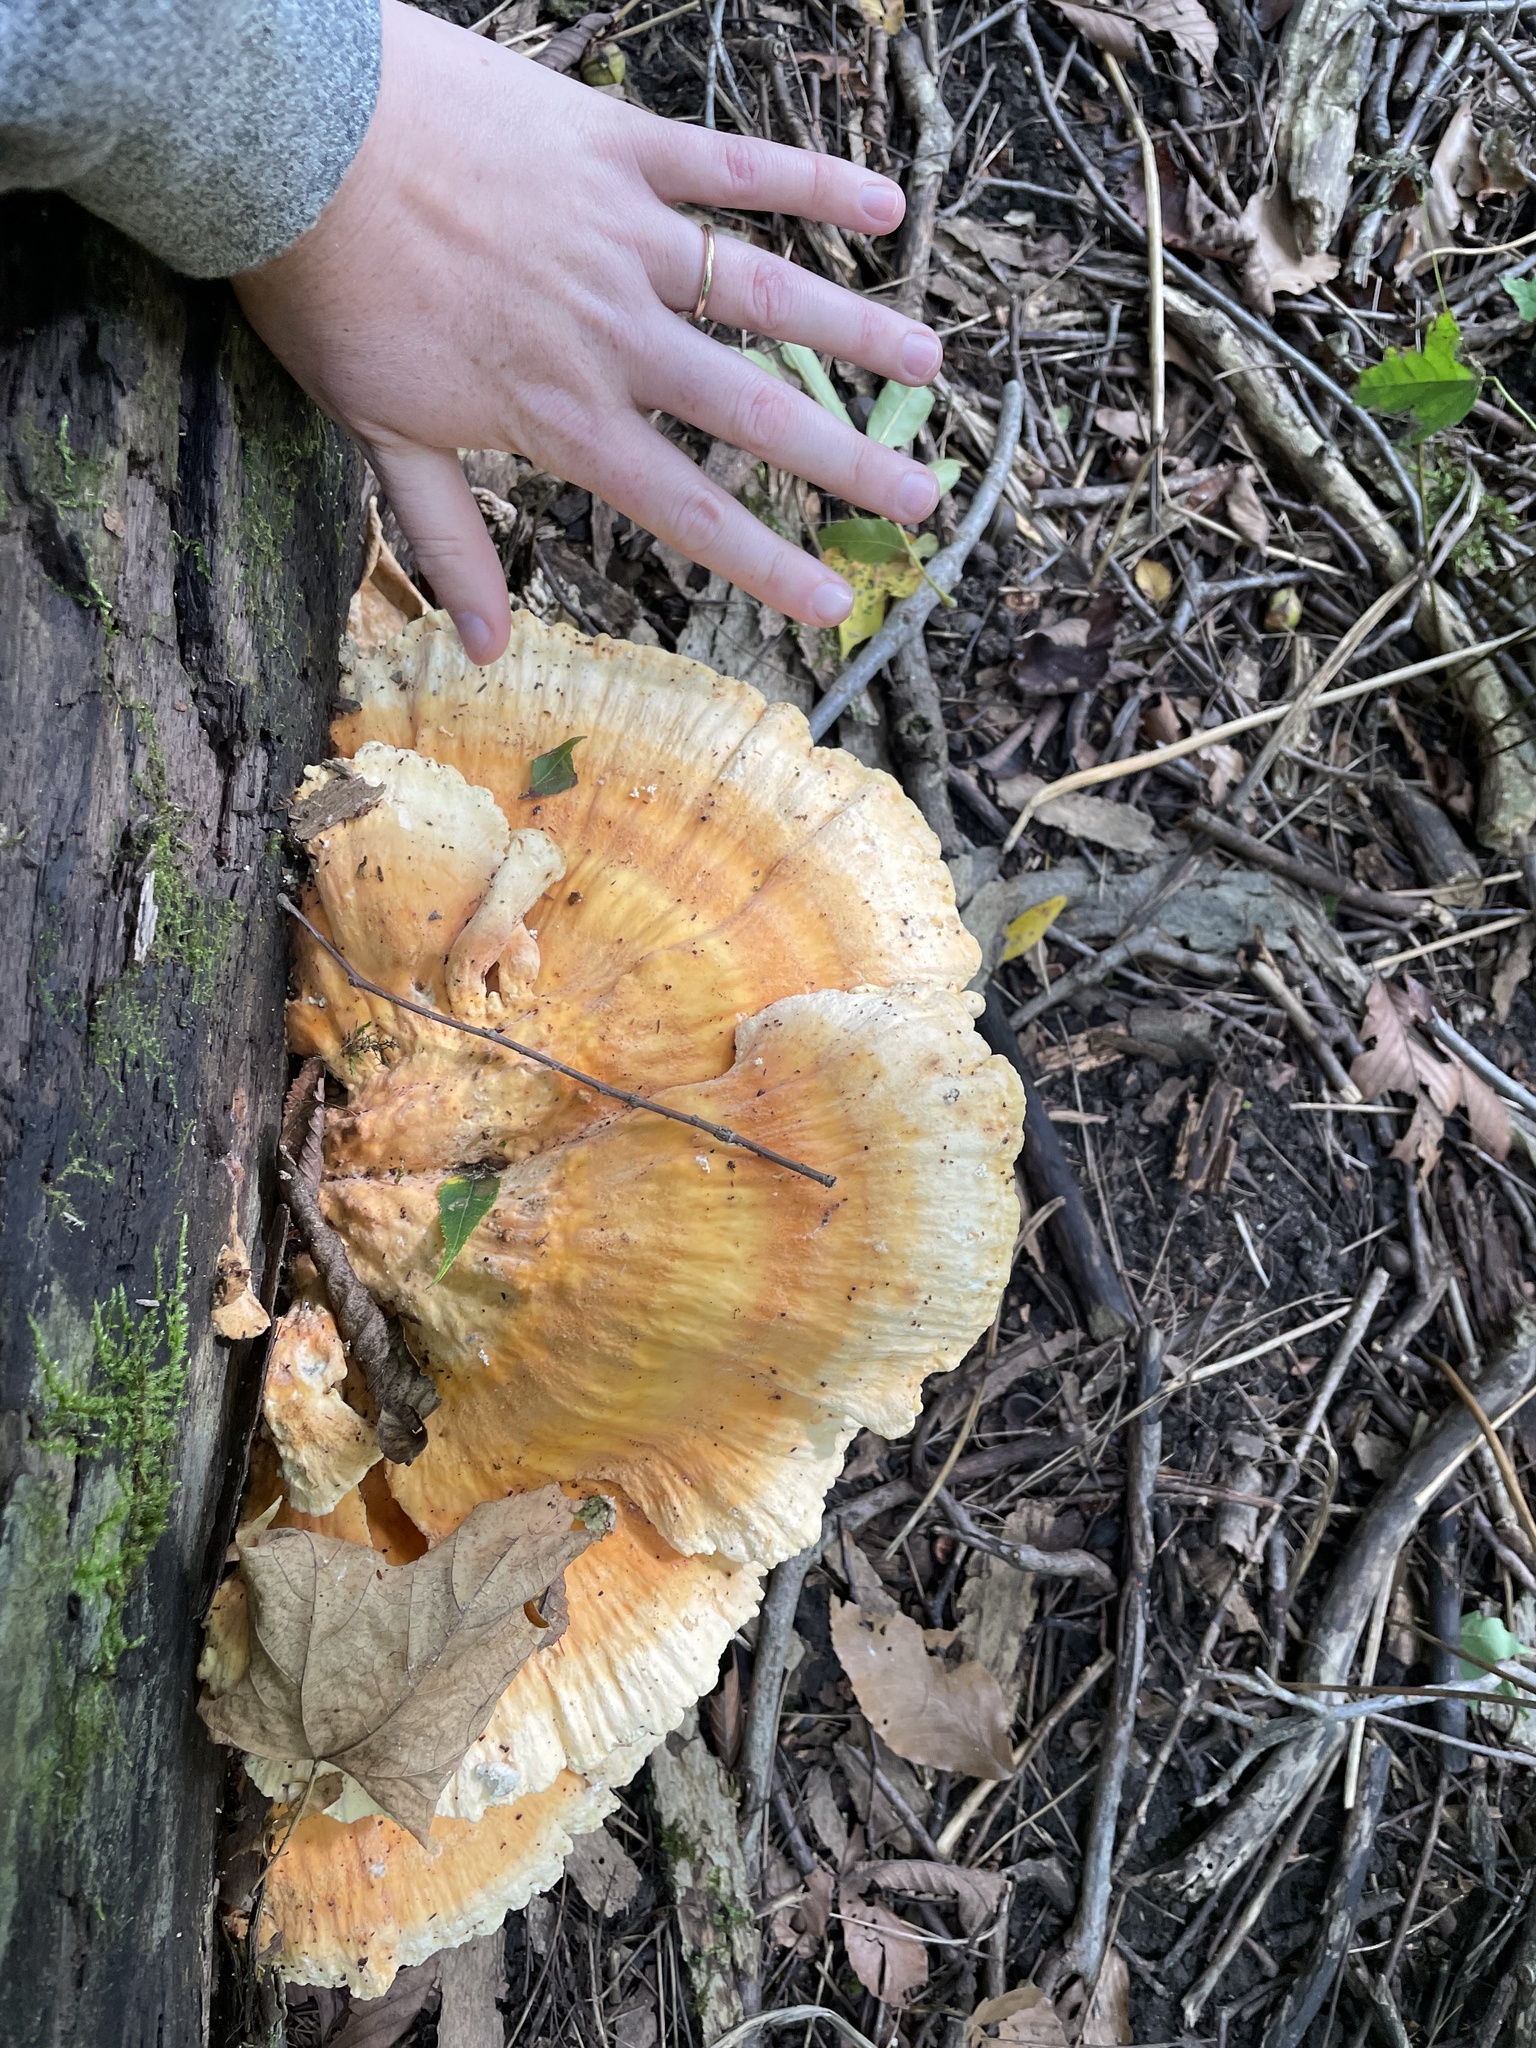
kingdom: Fungi
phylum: Basidiomycota
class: Agaricomycetes
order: Polyporales
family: Laetiporaceae
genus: Laetiporus
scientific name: Laetiporus sulphureus
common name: Chicken of the woods
